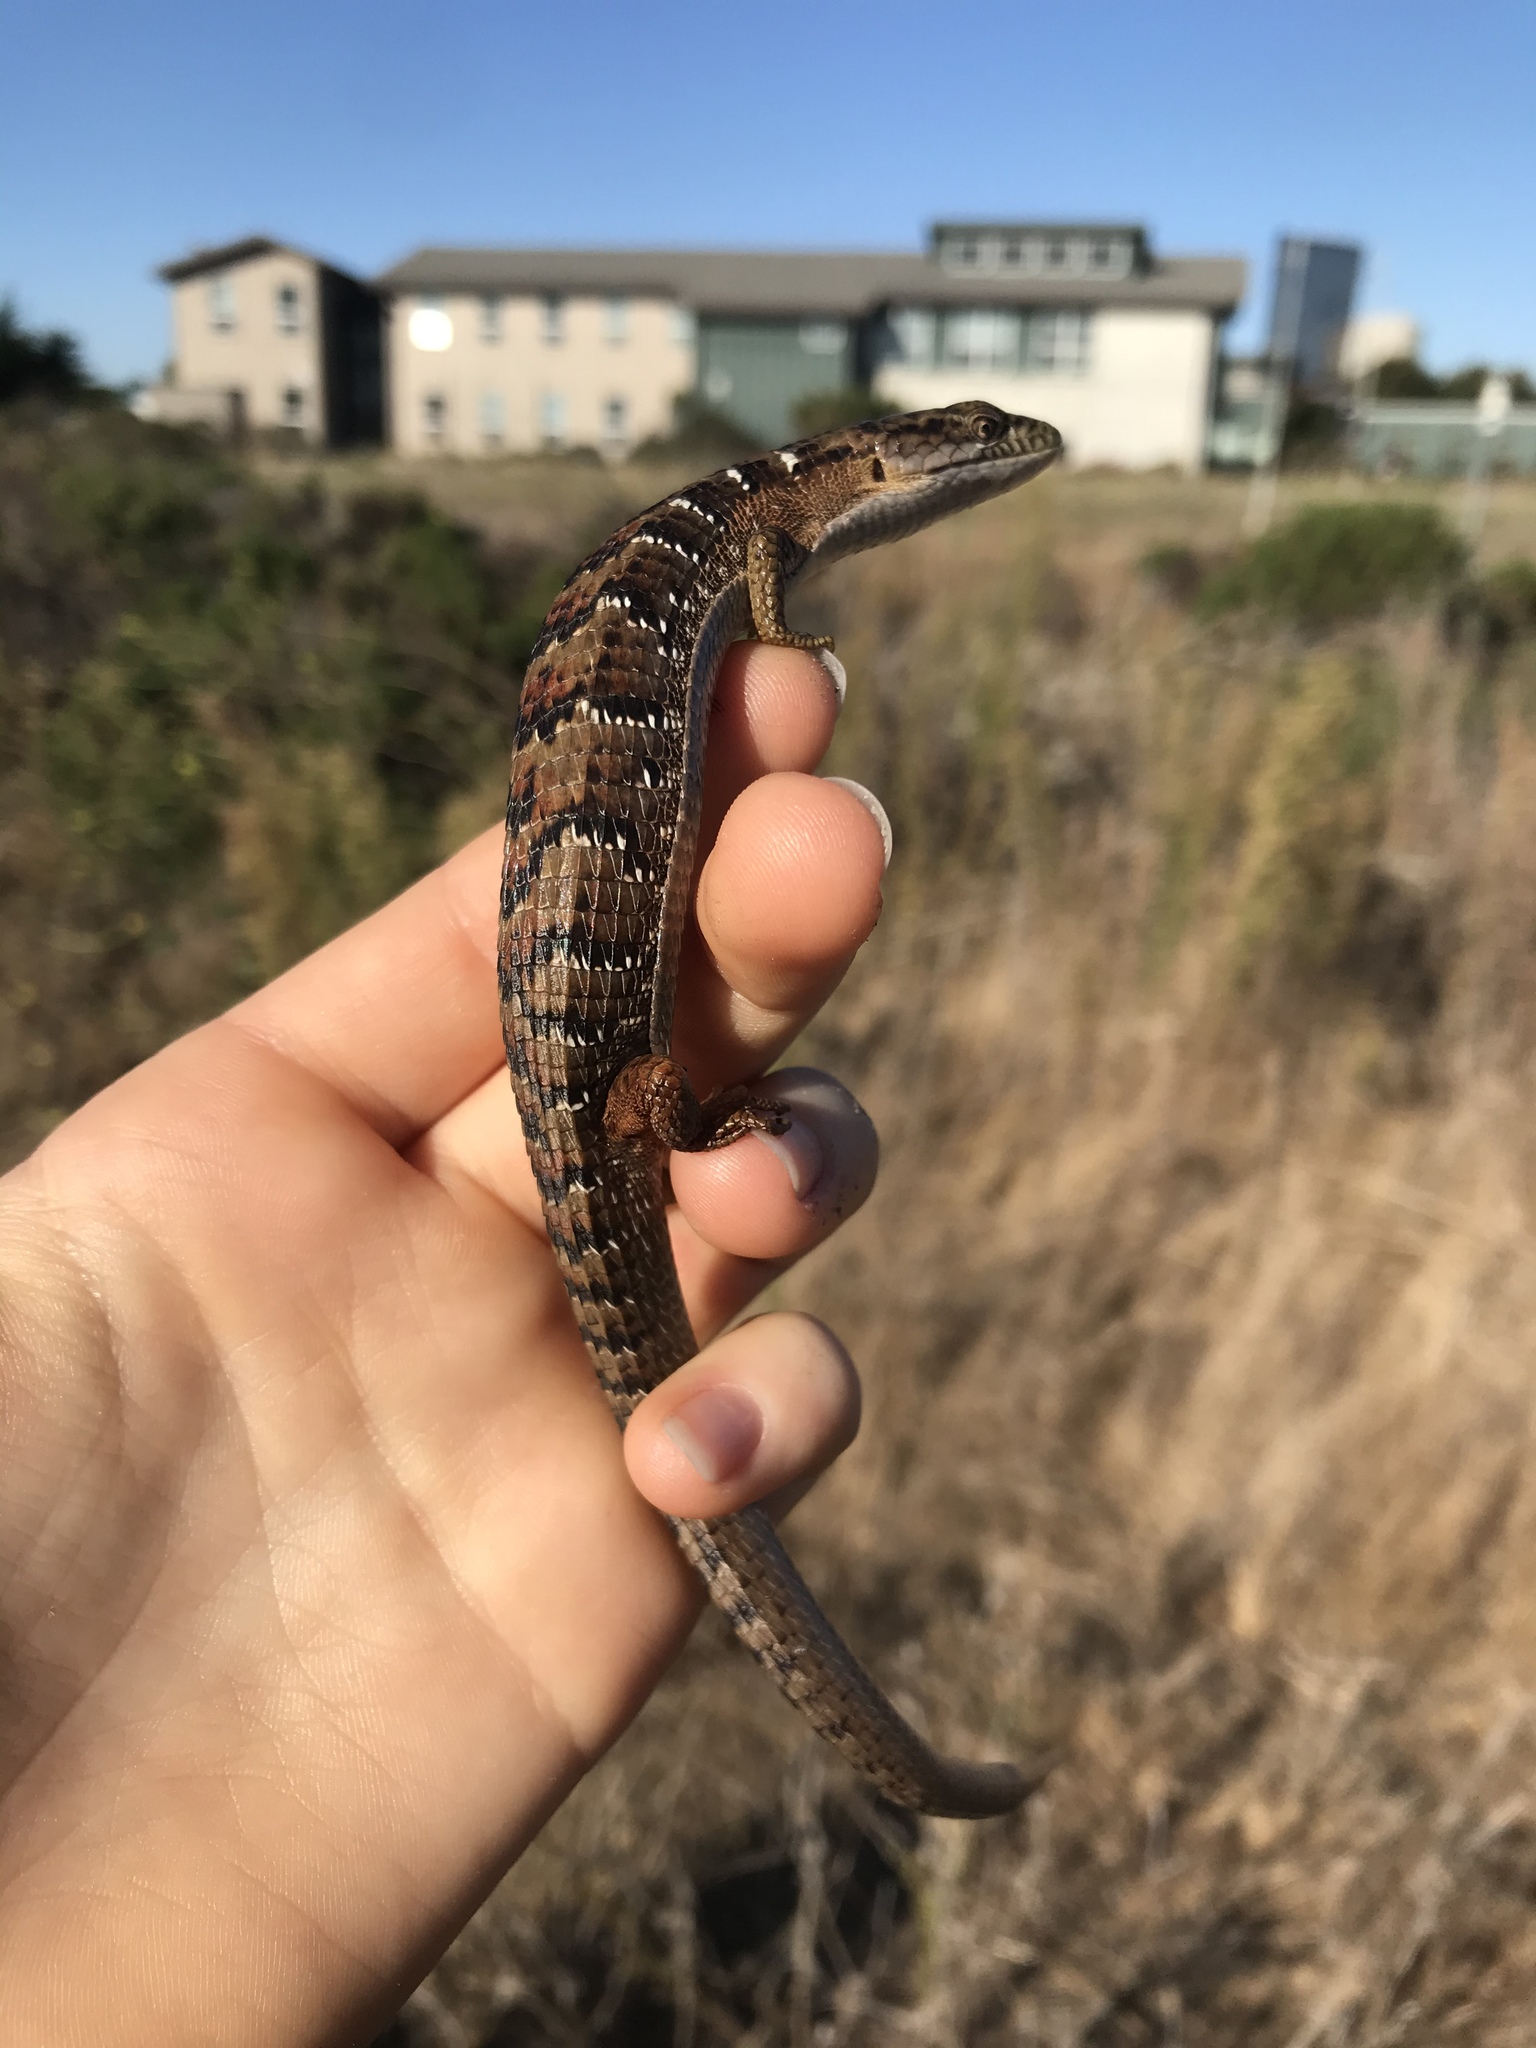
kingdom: Animalia
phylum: Chordata
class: Squamata
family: Anguidae
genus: Elgaria
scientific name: Elgaria multicarinata
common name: Southern alligator lizard
